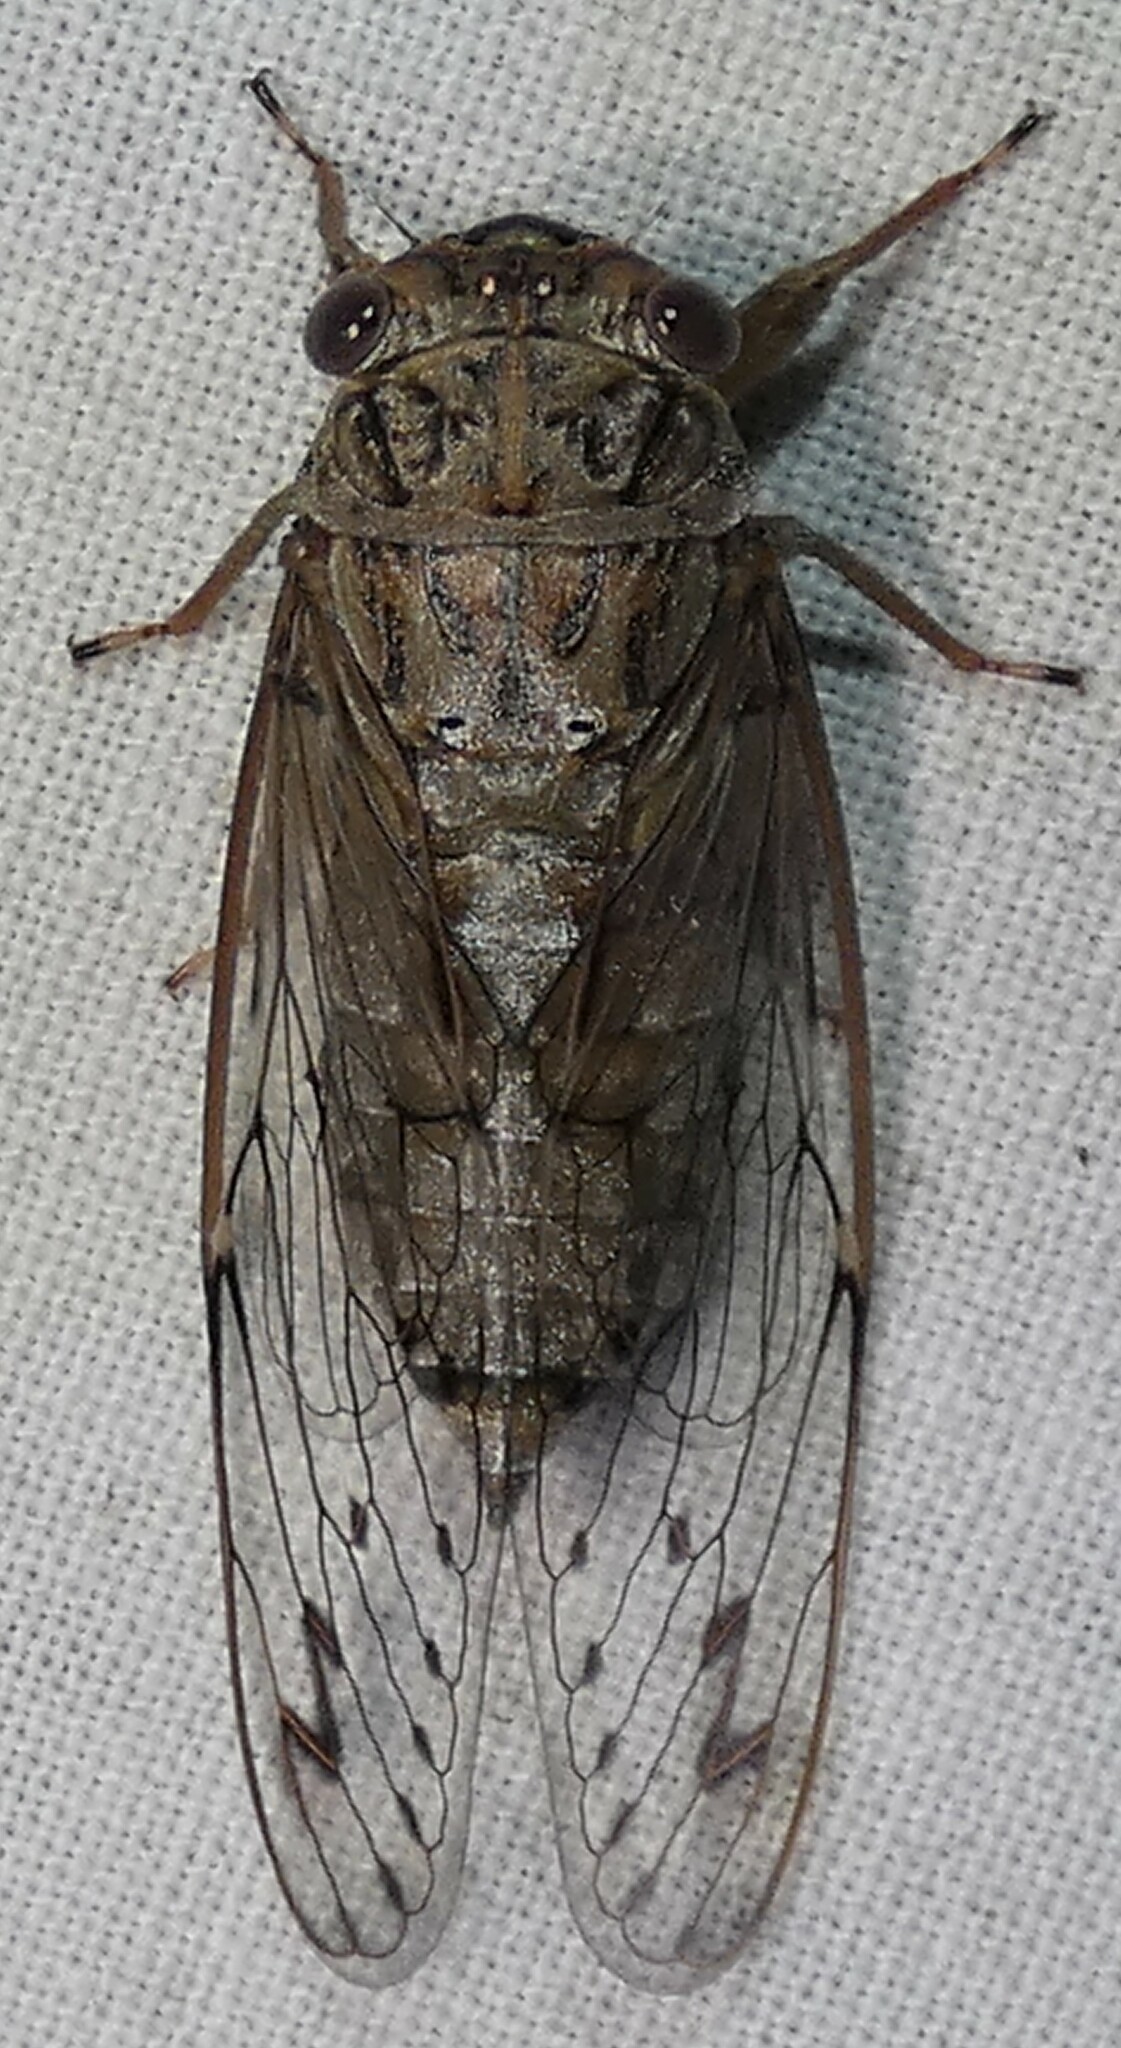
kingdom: Animalia
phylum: Arthropoda
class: Insecta
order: Hemiptera
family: Cicadidae
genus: Neocicada
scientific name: Neocicada hieroglyphica
